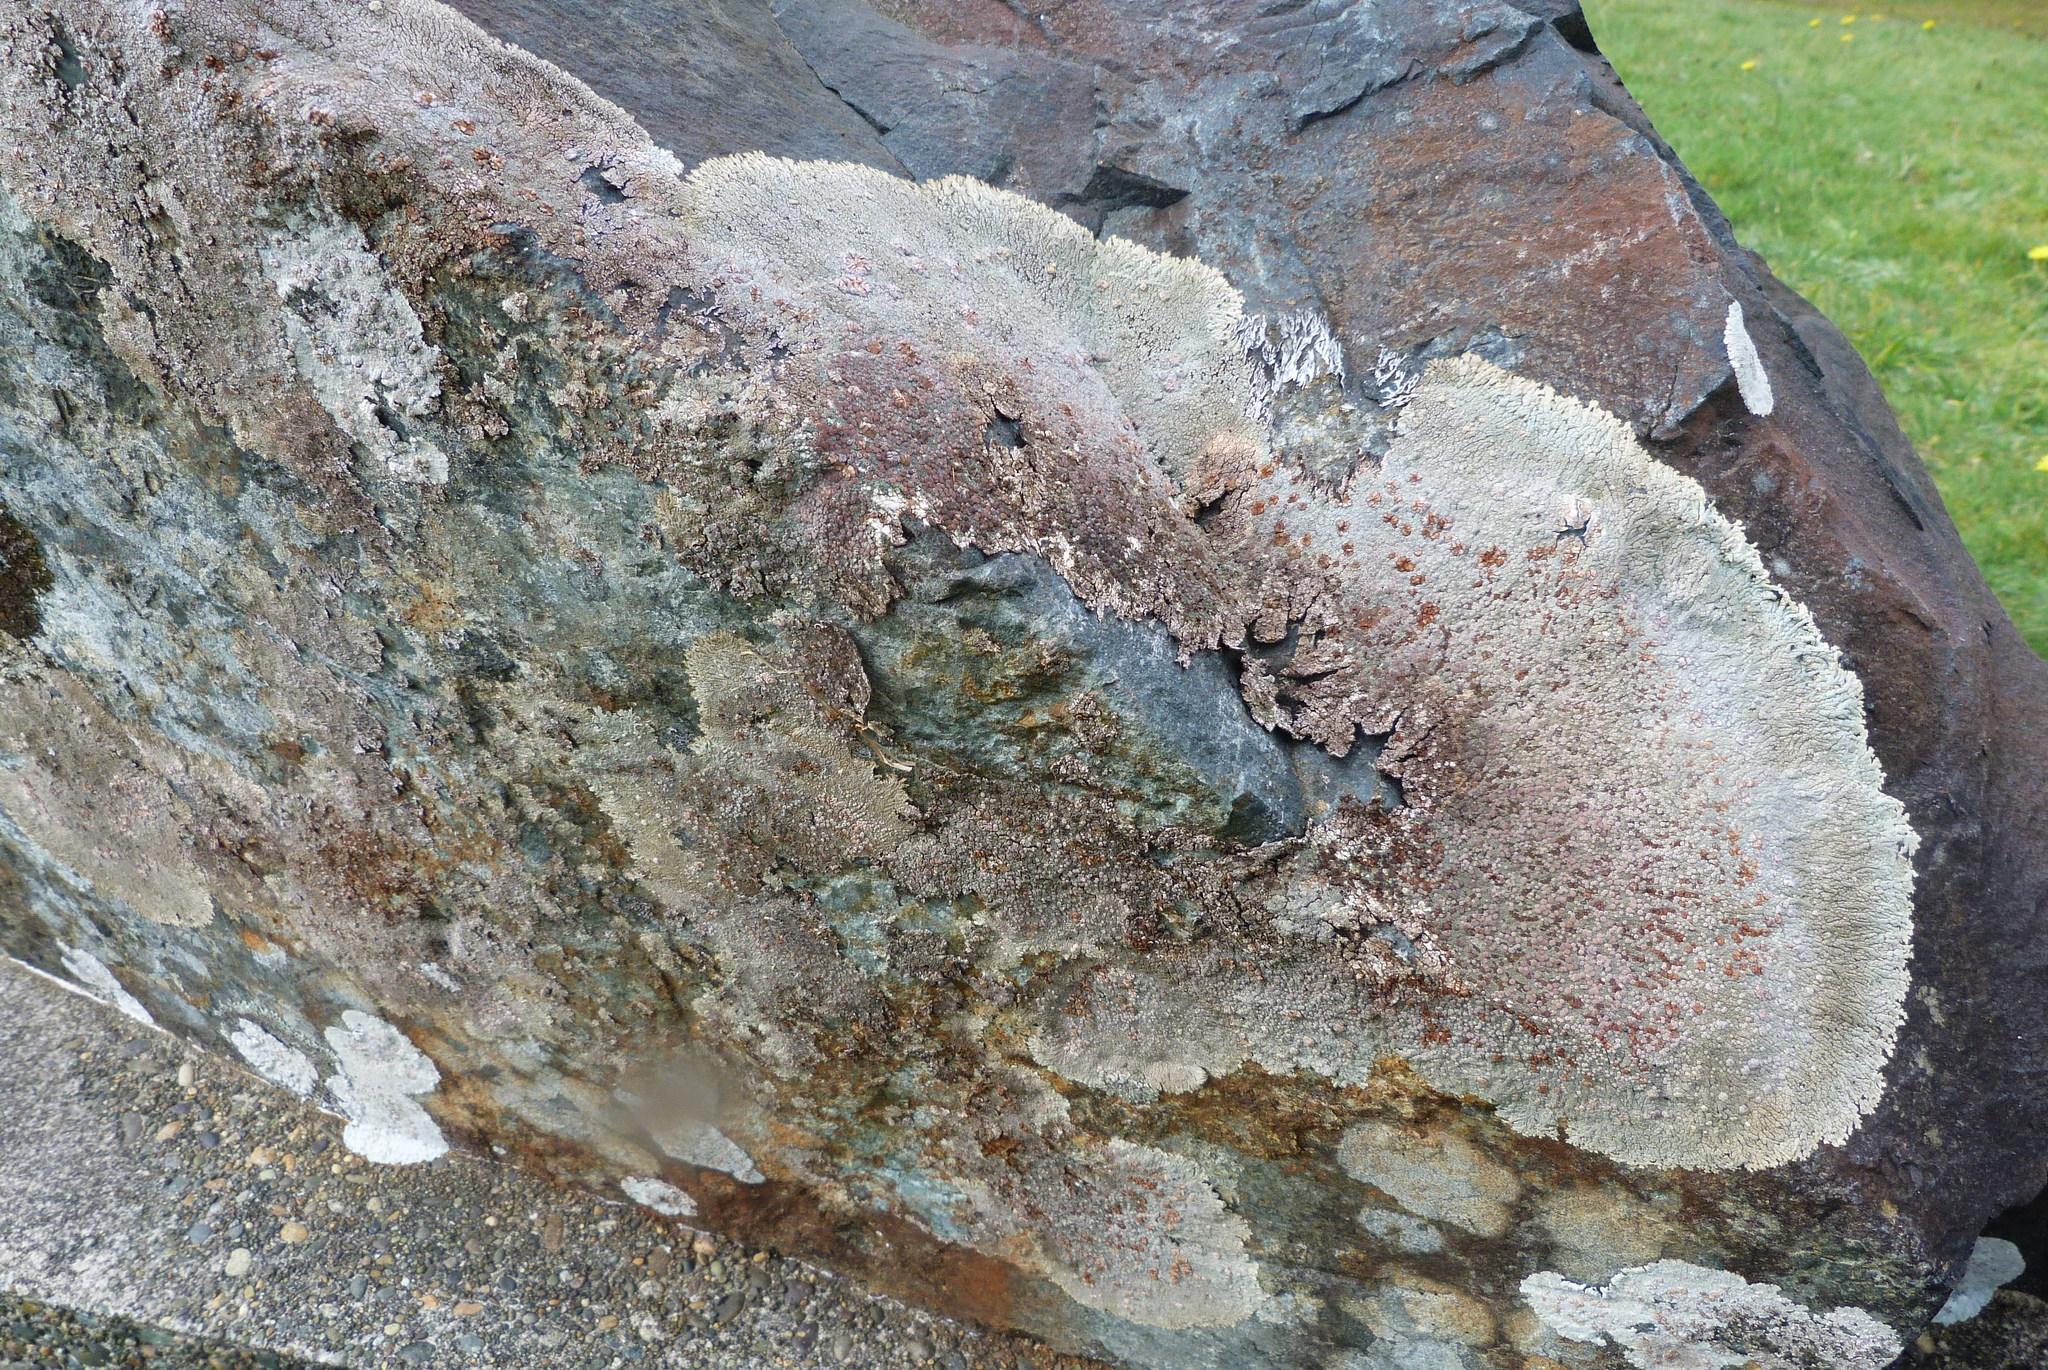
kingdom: Fungi
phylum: Ascomycota
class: Lecanoromycetes
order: Baeomycetales
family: Trapeliaceae
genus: Placopsis
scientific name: Placopsis gelida
